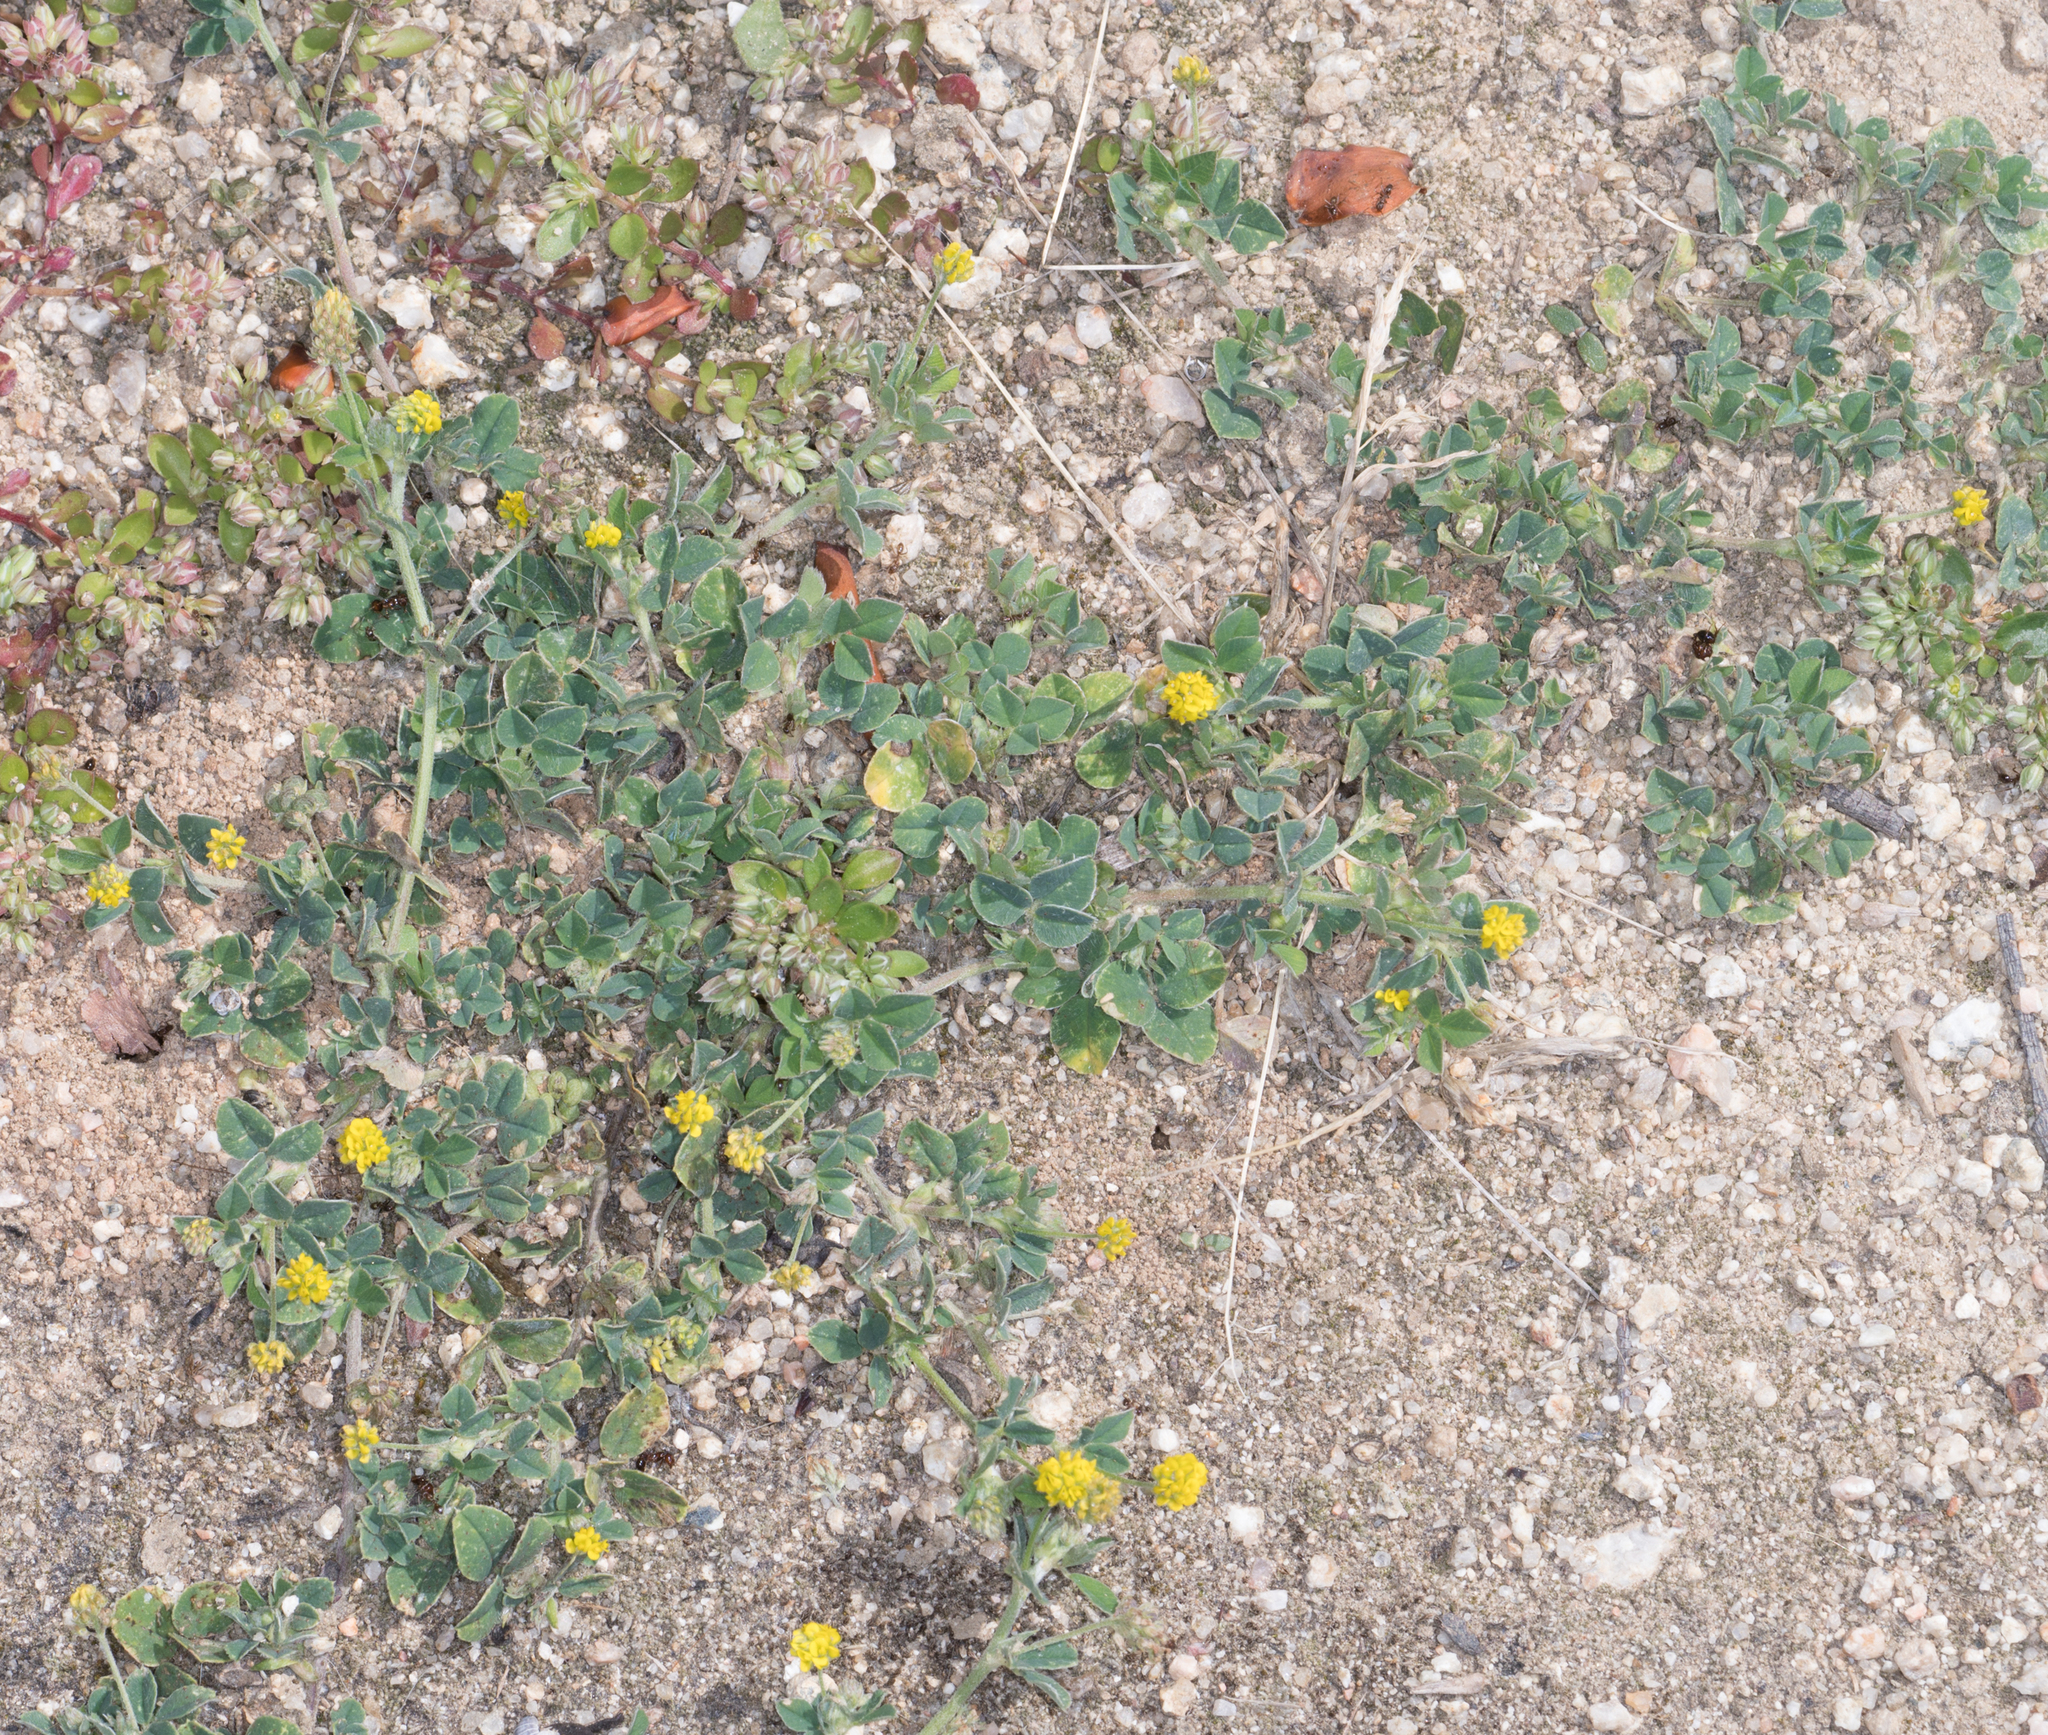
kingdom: Plantae
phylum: Tracheophyta
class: Magnoliopsida
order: Fabales
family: Fabaceae
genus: Medicago
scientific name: Medicago lupulina
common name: Black medick
